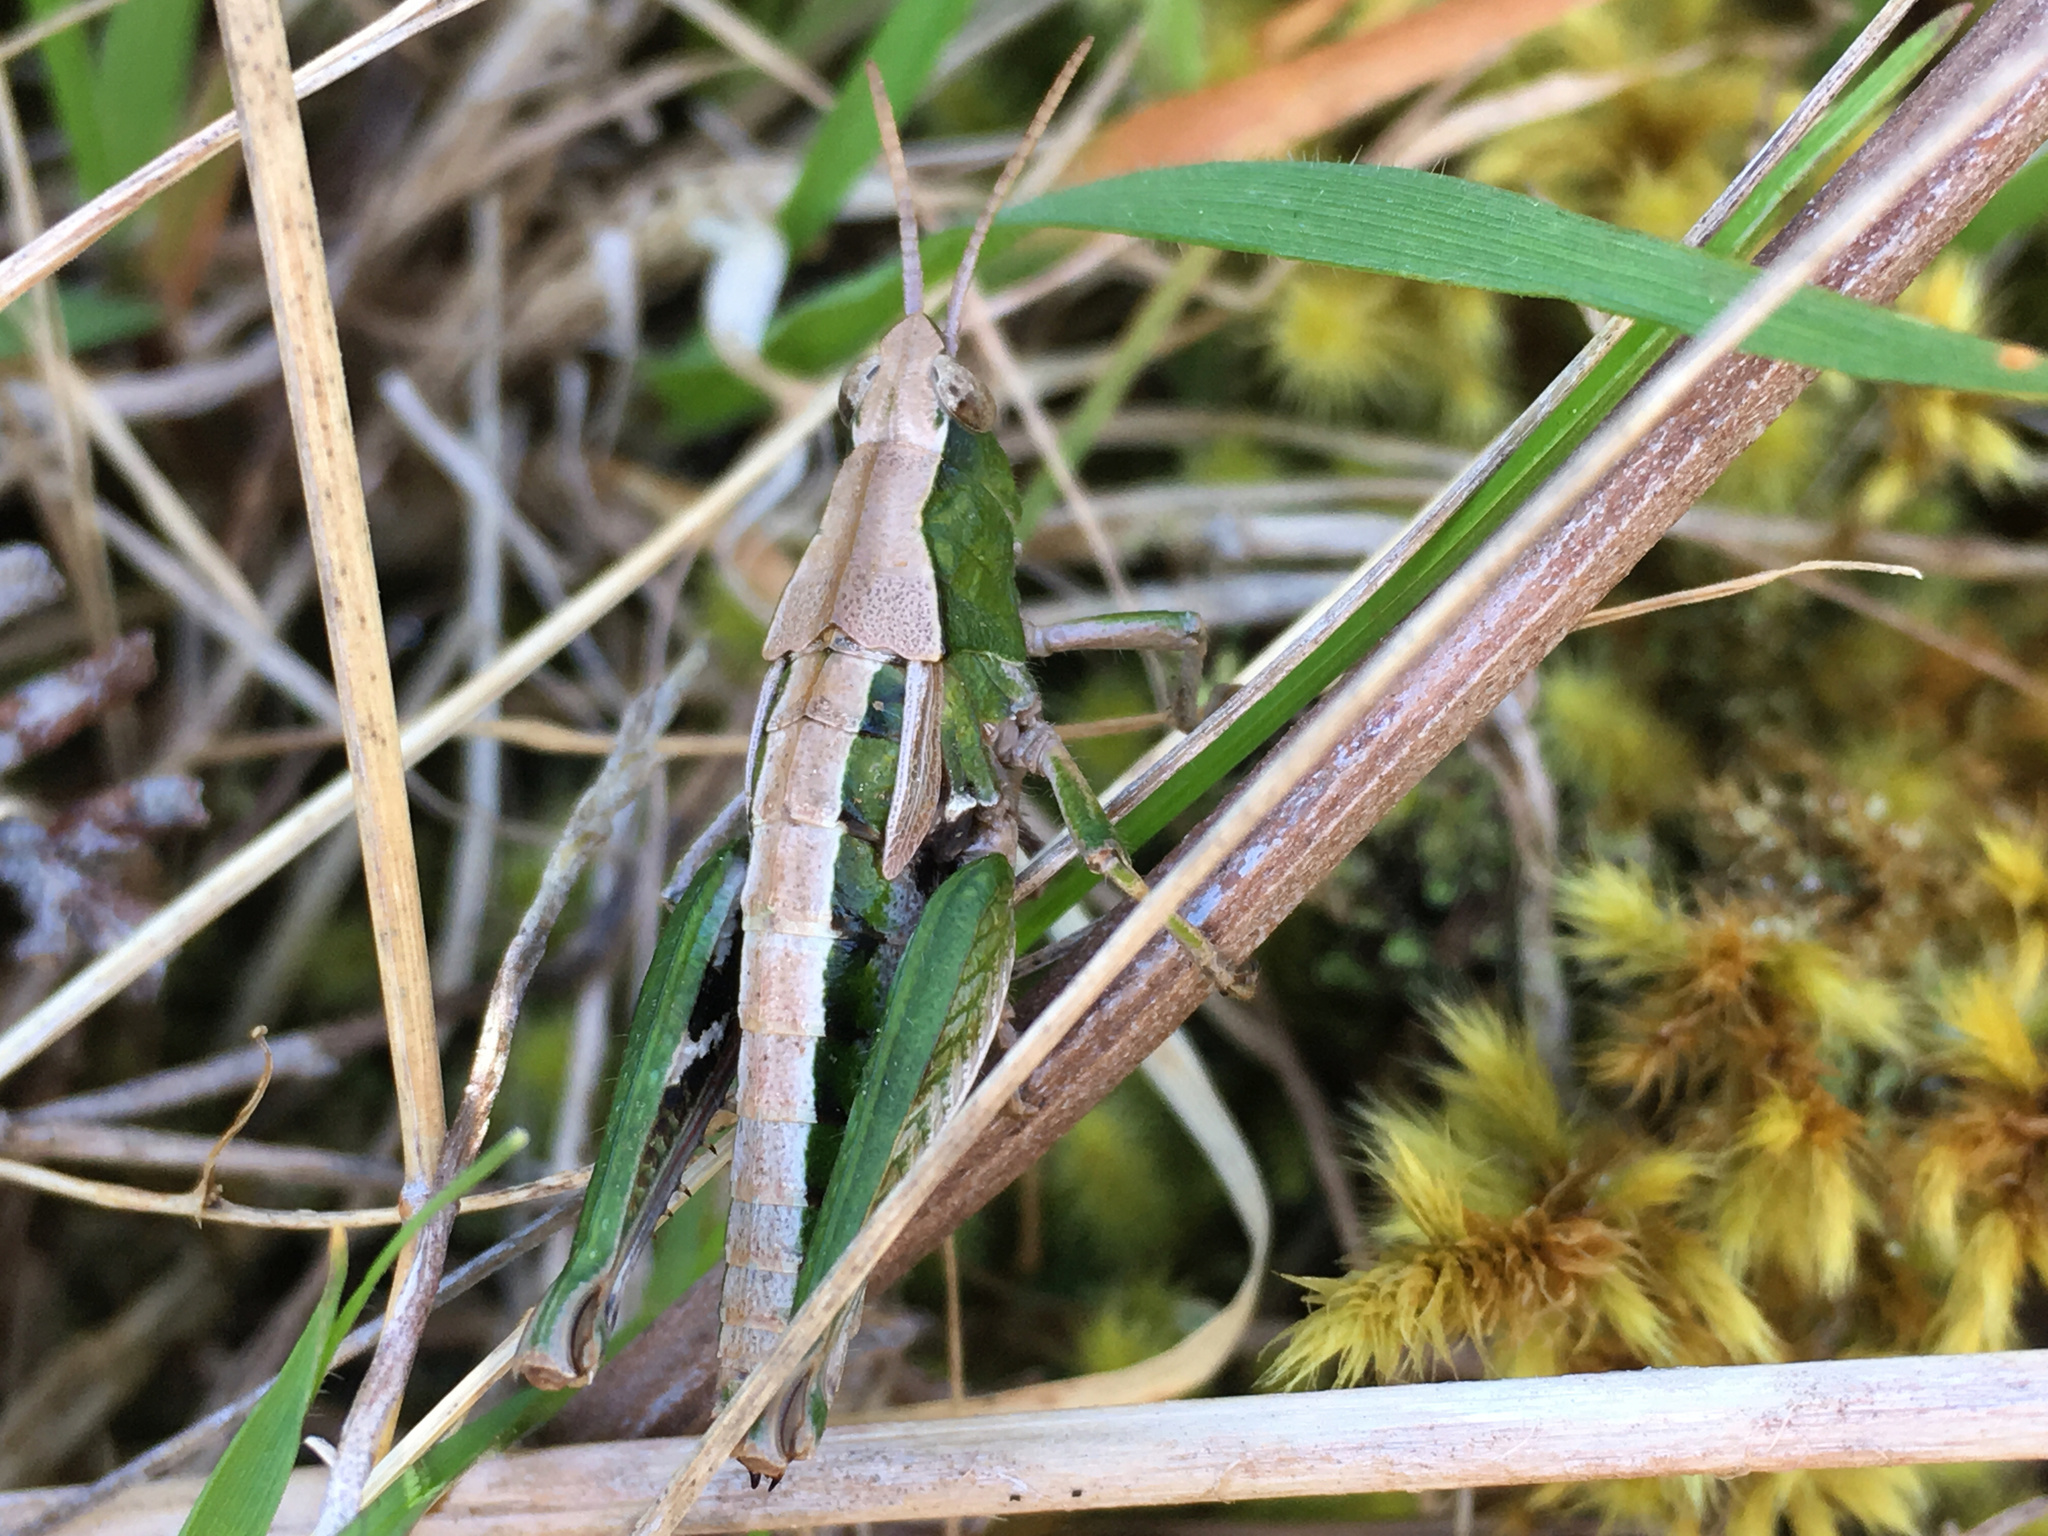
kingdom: Animalia
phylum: Arthropoda
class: Insecta
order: Orthoptera
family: Acrididae
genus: Sigaus
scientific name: Sigaus campestris
